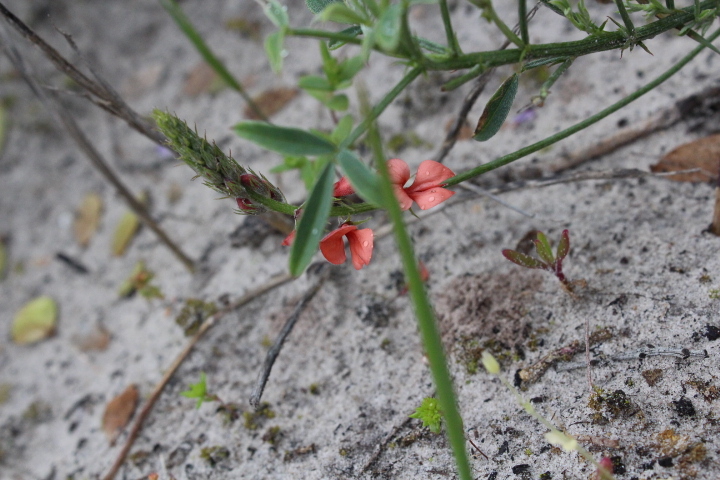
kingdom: Plantae
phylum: Tracheophyta
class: Magnoliopsida
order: Fabales
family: Fabaceae
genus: Indigofera
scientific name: Indigofera heterophylla
